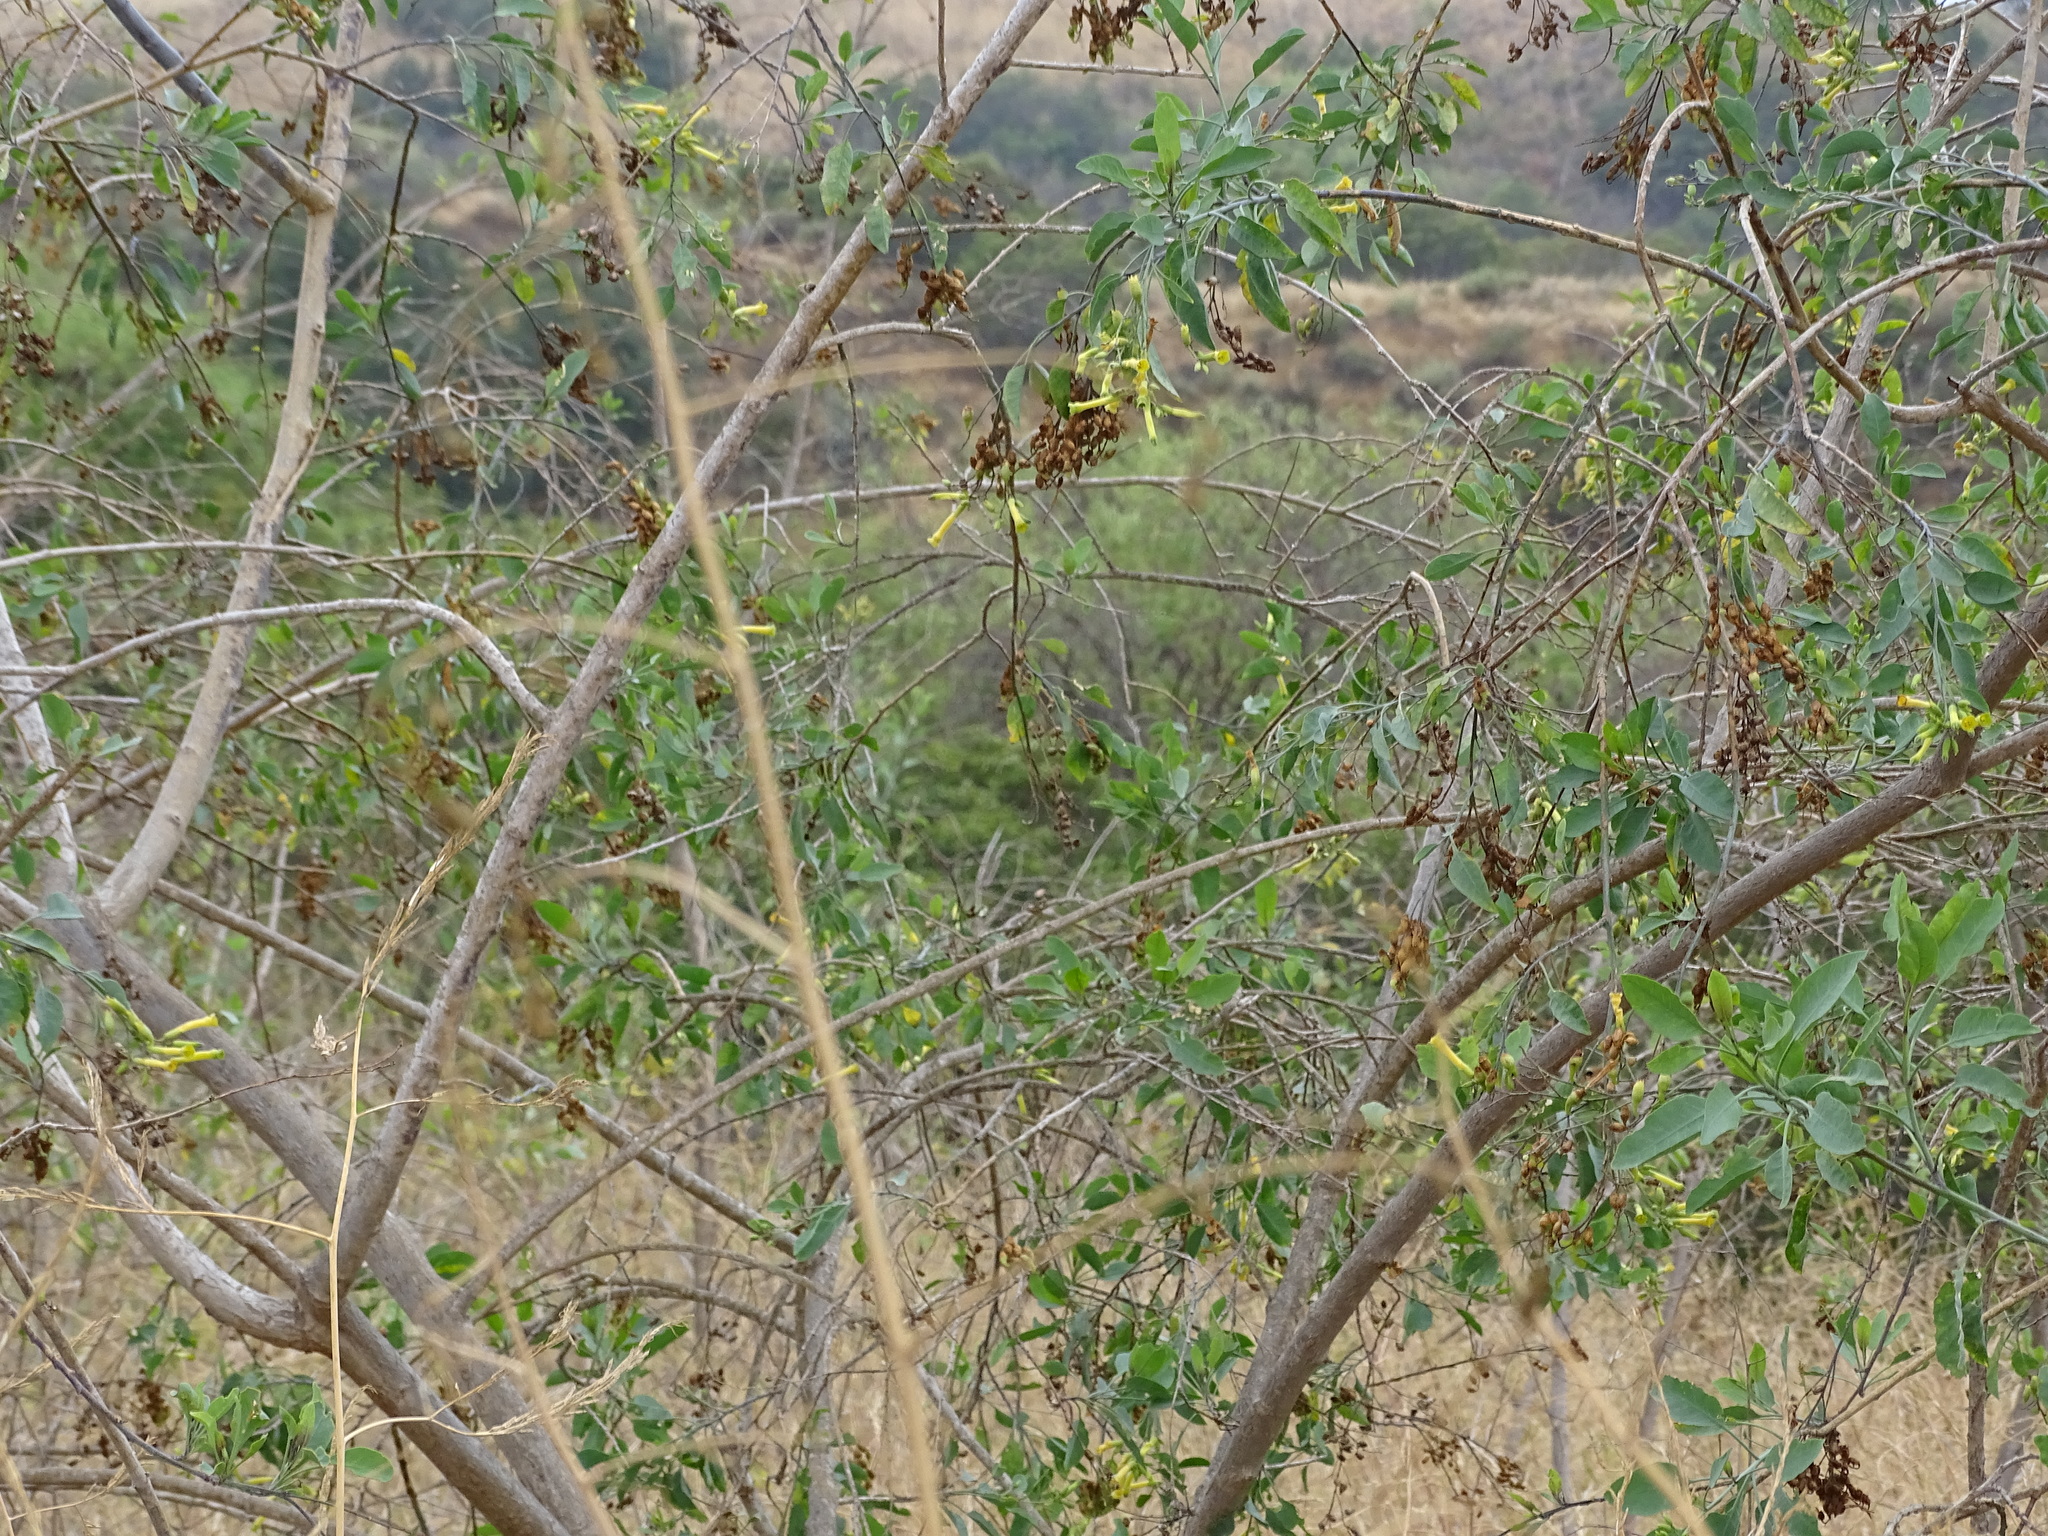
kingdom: Plantae
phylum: Tracheophyta
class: Magnoliopsida
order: Solanales
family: Solanaceae
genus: Nicotiana
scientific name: Nicotiana glauca
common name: Tree tobacco
